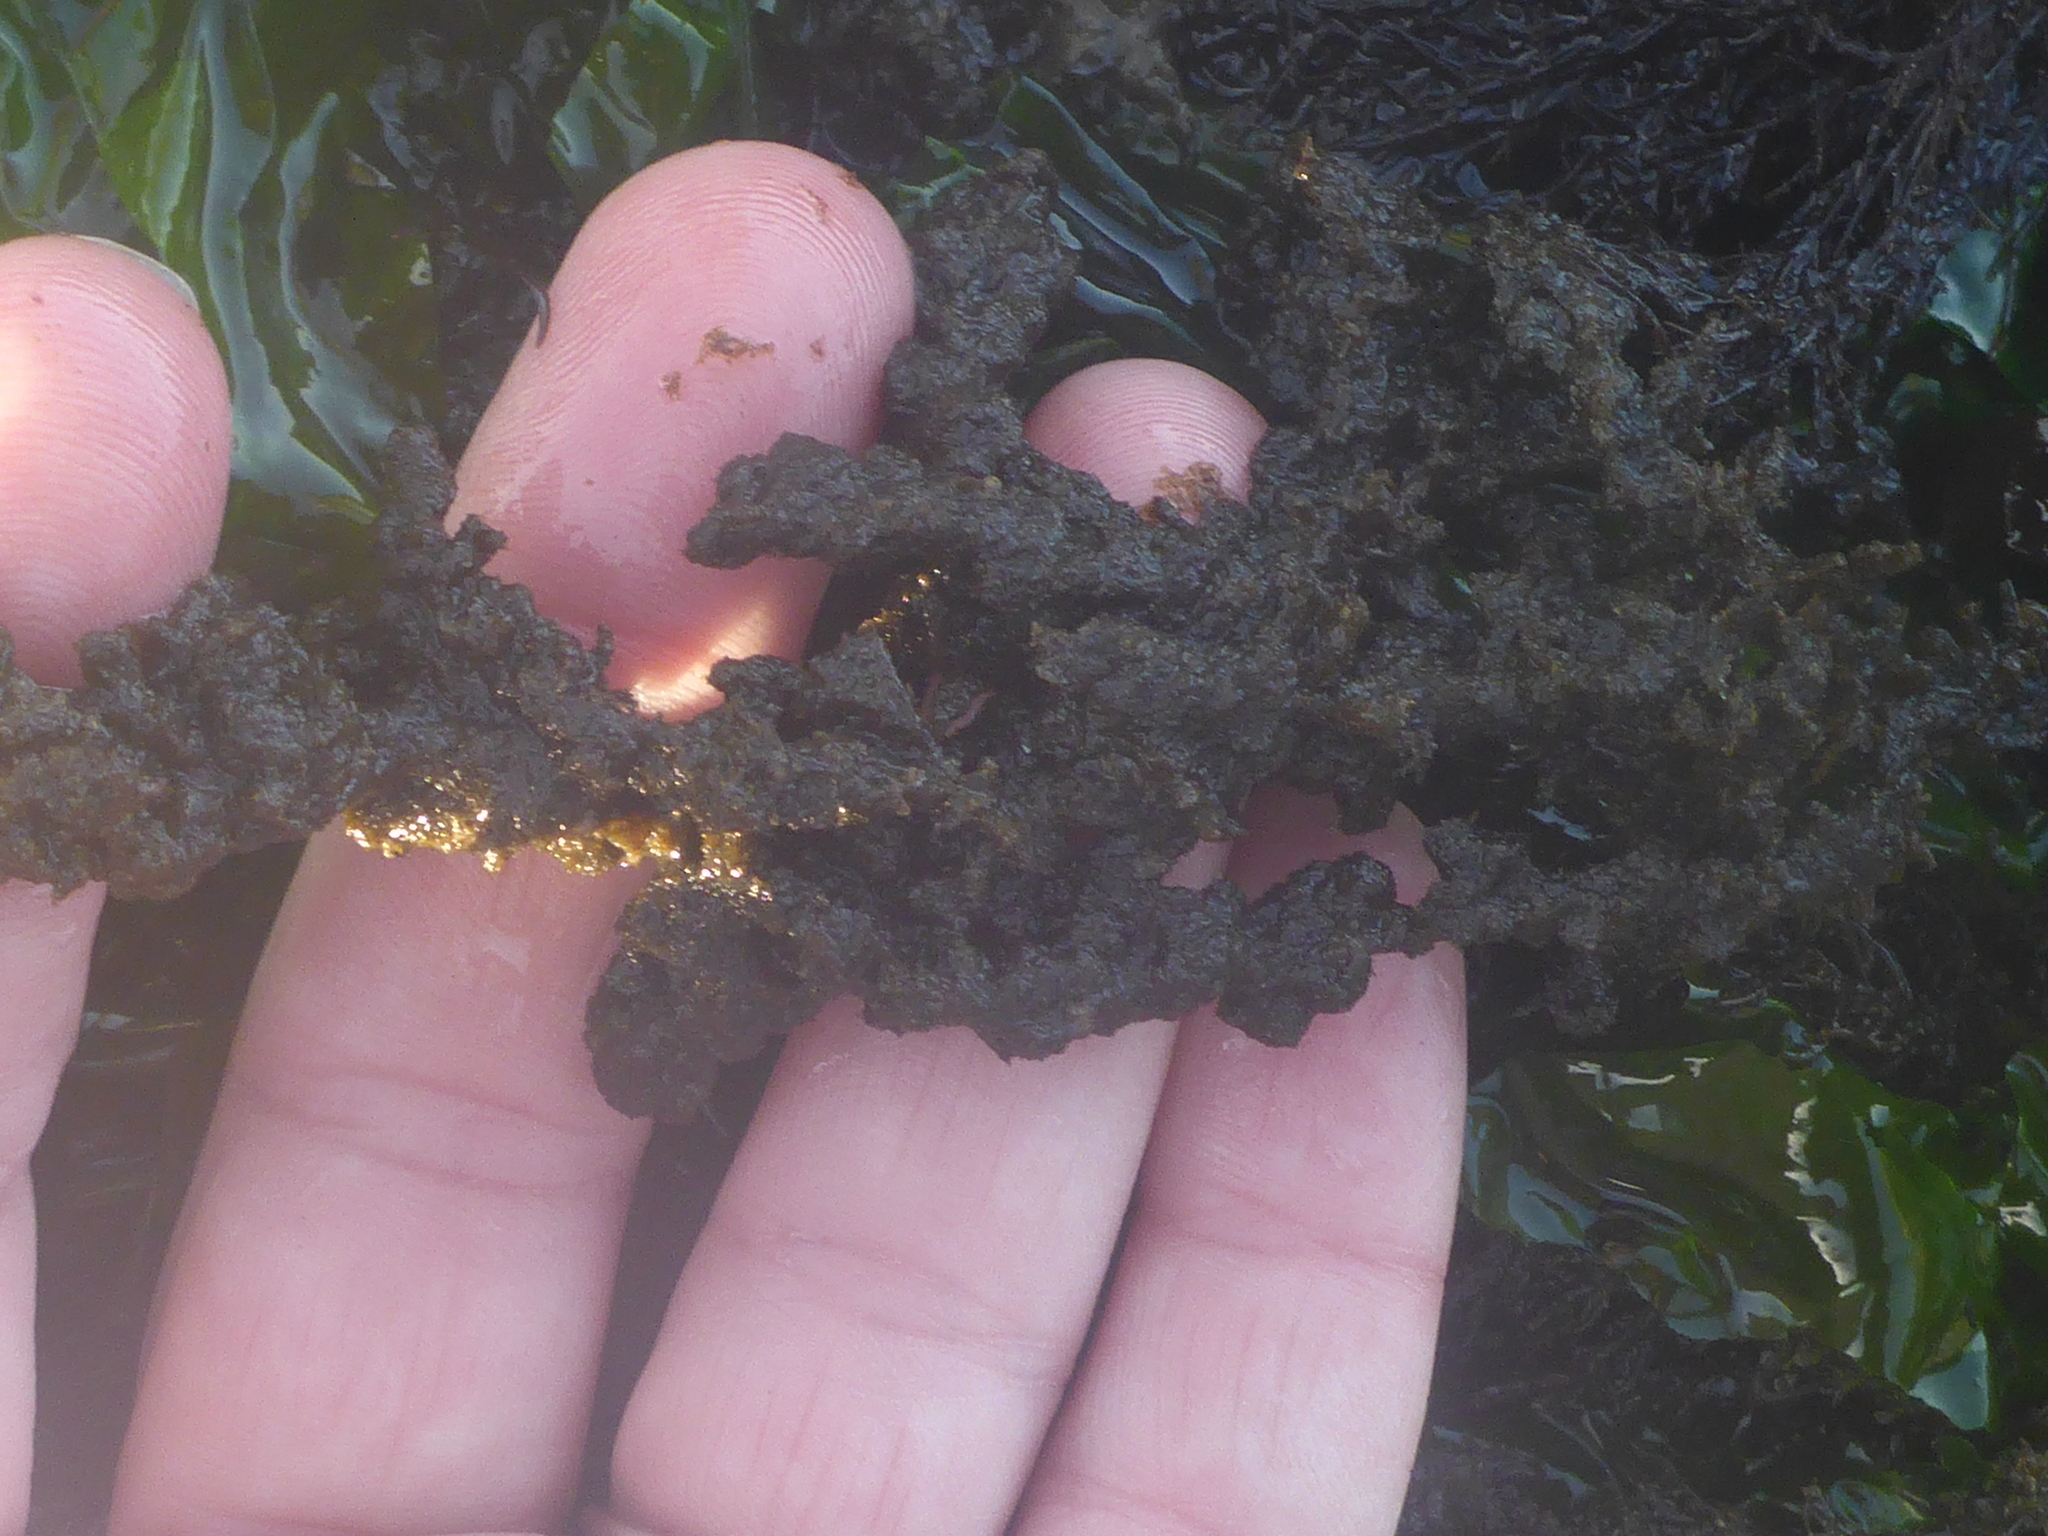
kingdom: Plantae
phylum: Rhodophyta
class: Florideophyceae
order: Ceramiales
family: Callithamniaceae
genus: Callithamnion
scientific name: Callithamnion pikeanum
